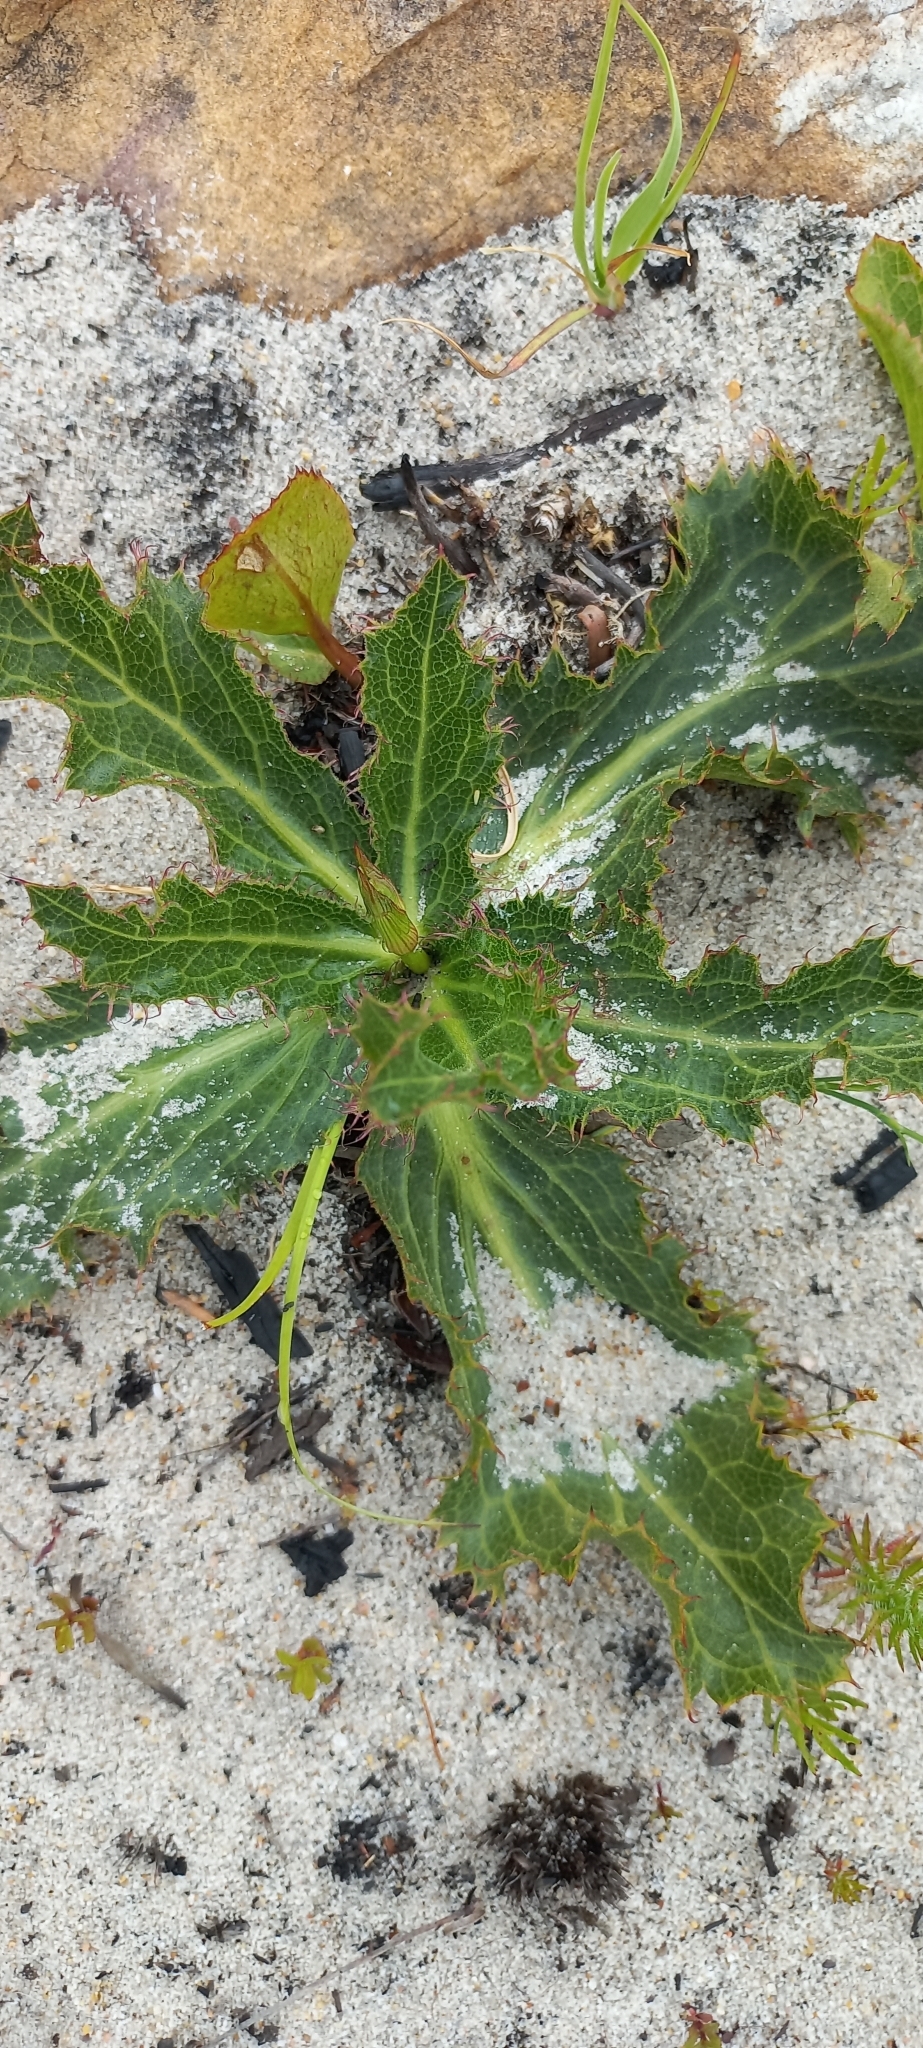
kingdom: Plantae
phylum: Tracheophyta
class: Magnoliopsida
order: Apiales
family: Apiaceae
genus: Lichtensteinia
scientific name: Lichtensteinia lacera
